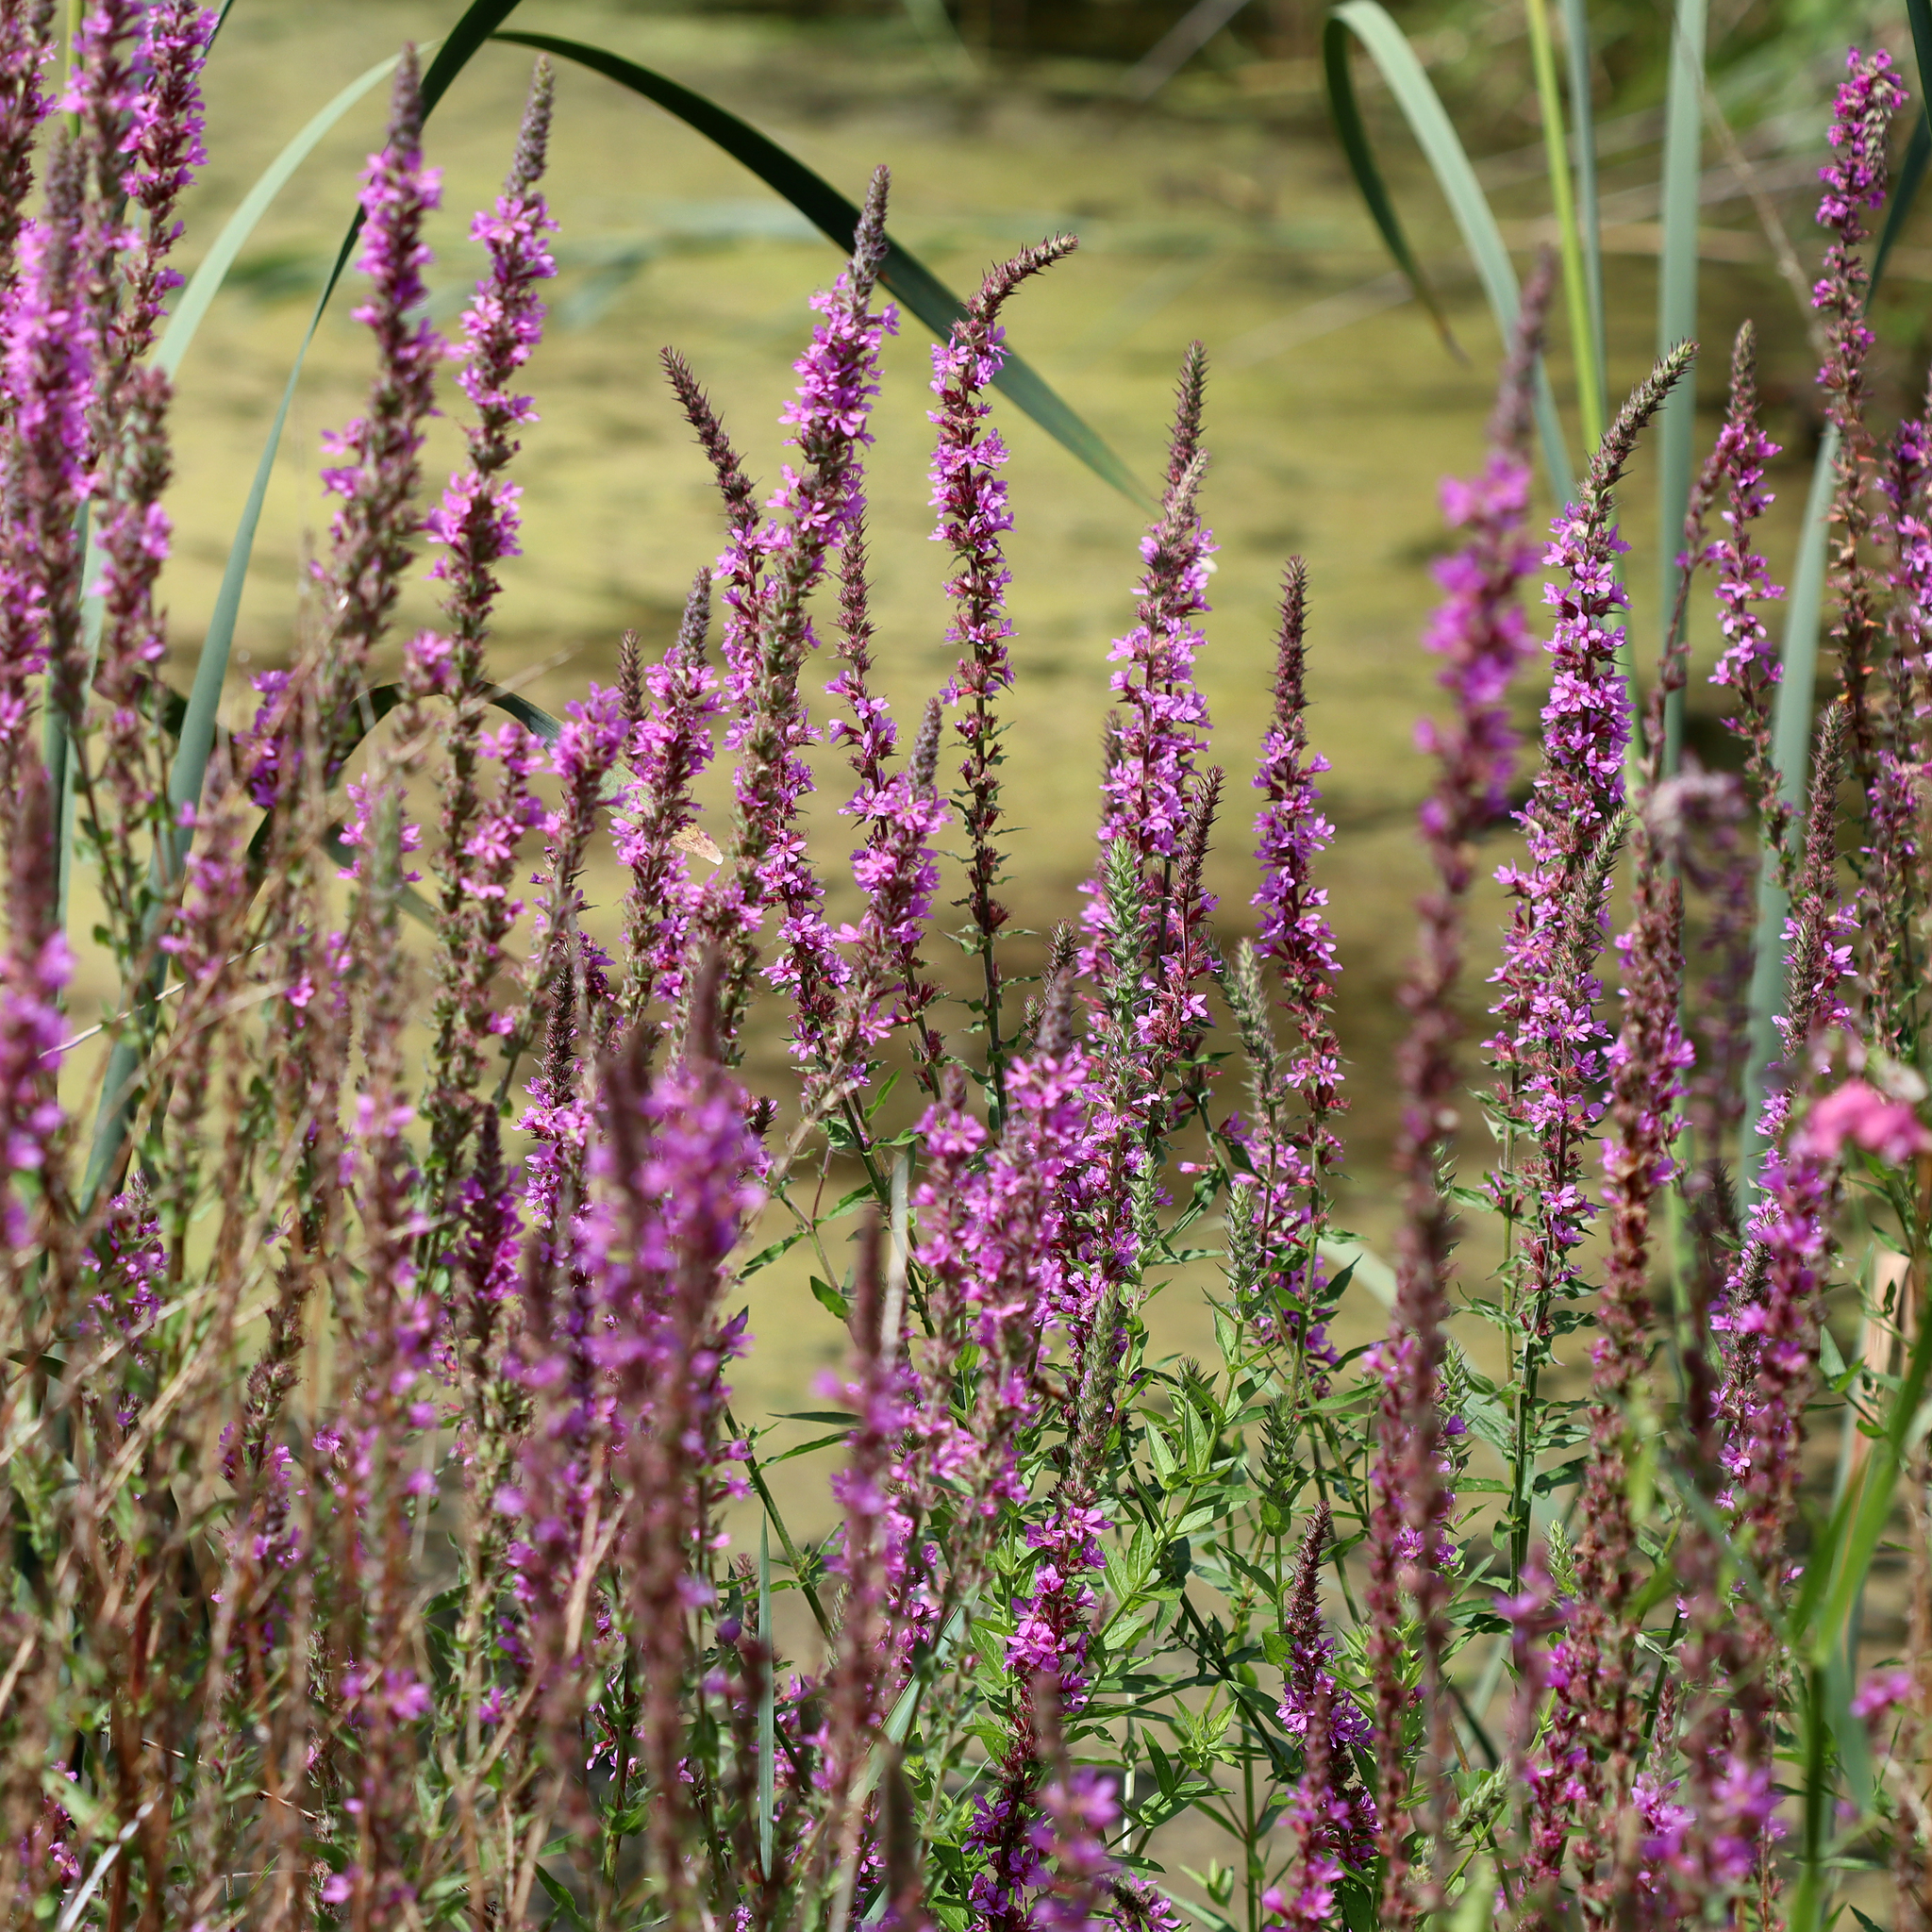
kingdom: Plantae
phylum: Tracheophyta
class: Magnoliopsida
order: Myrtales
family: Lythraceae
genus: Lythrum
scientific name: Lythrum salicaria
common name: Purple loosestrife
